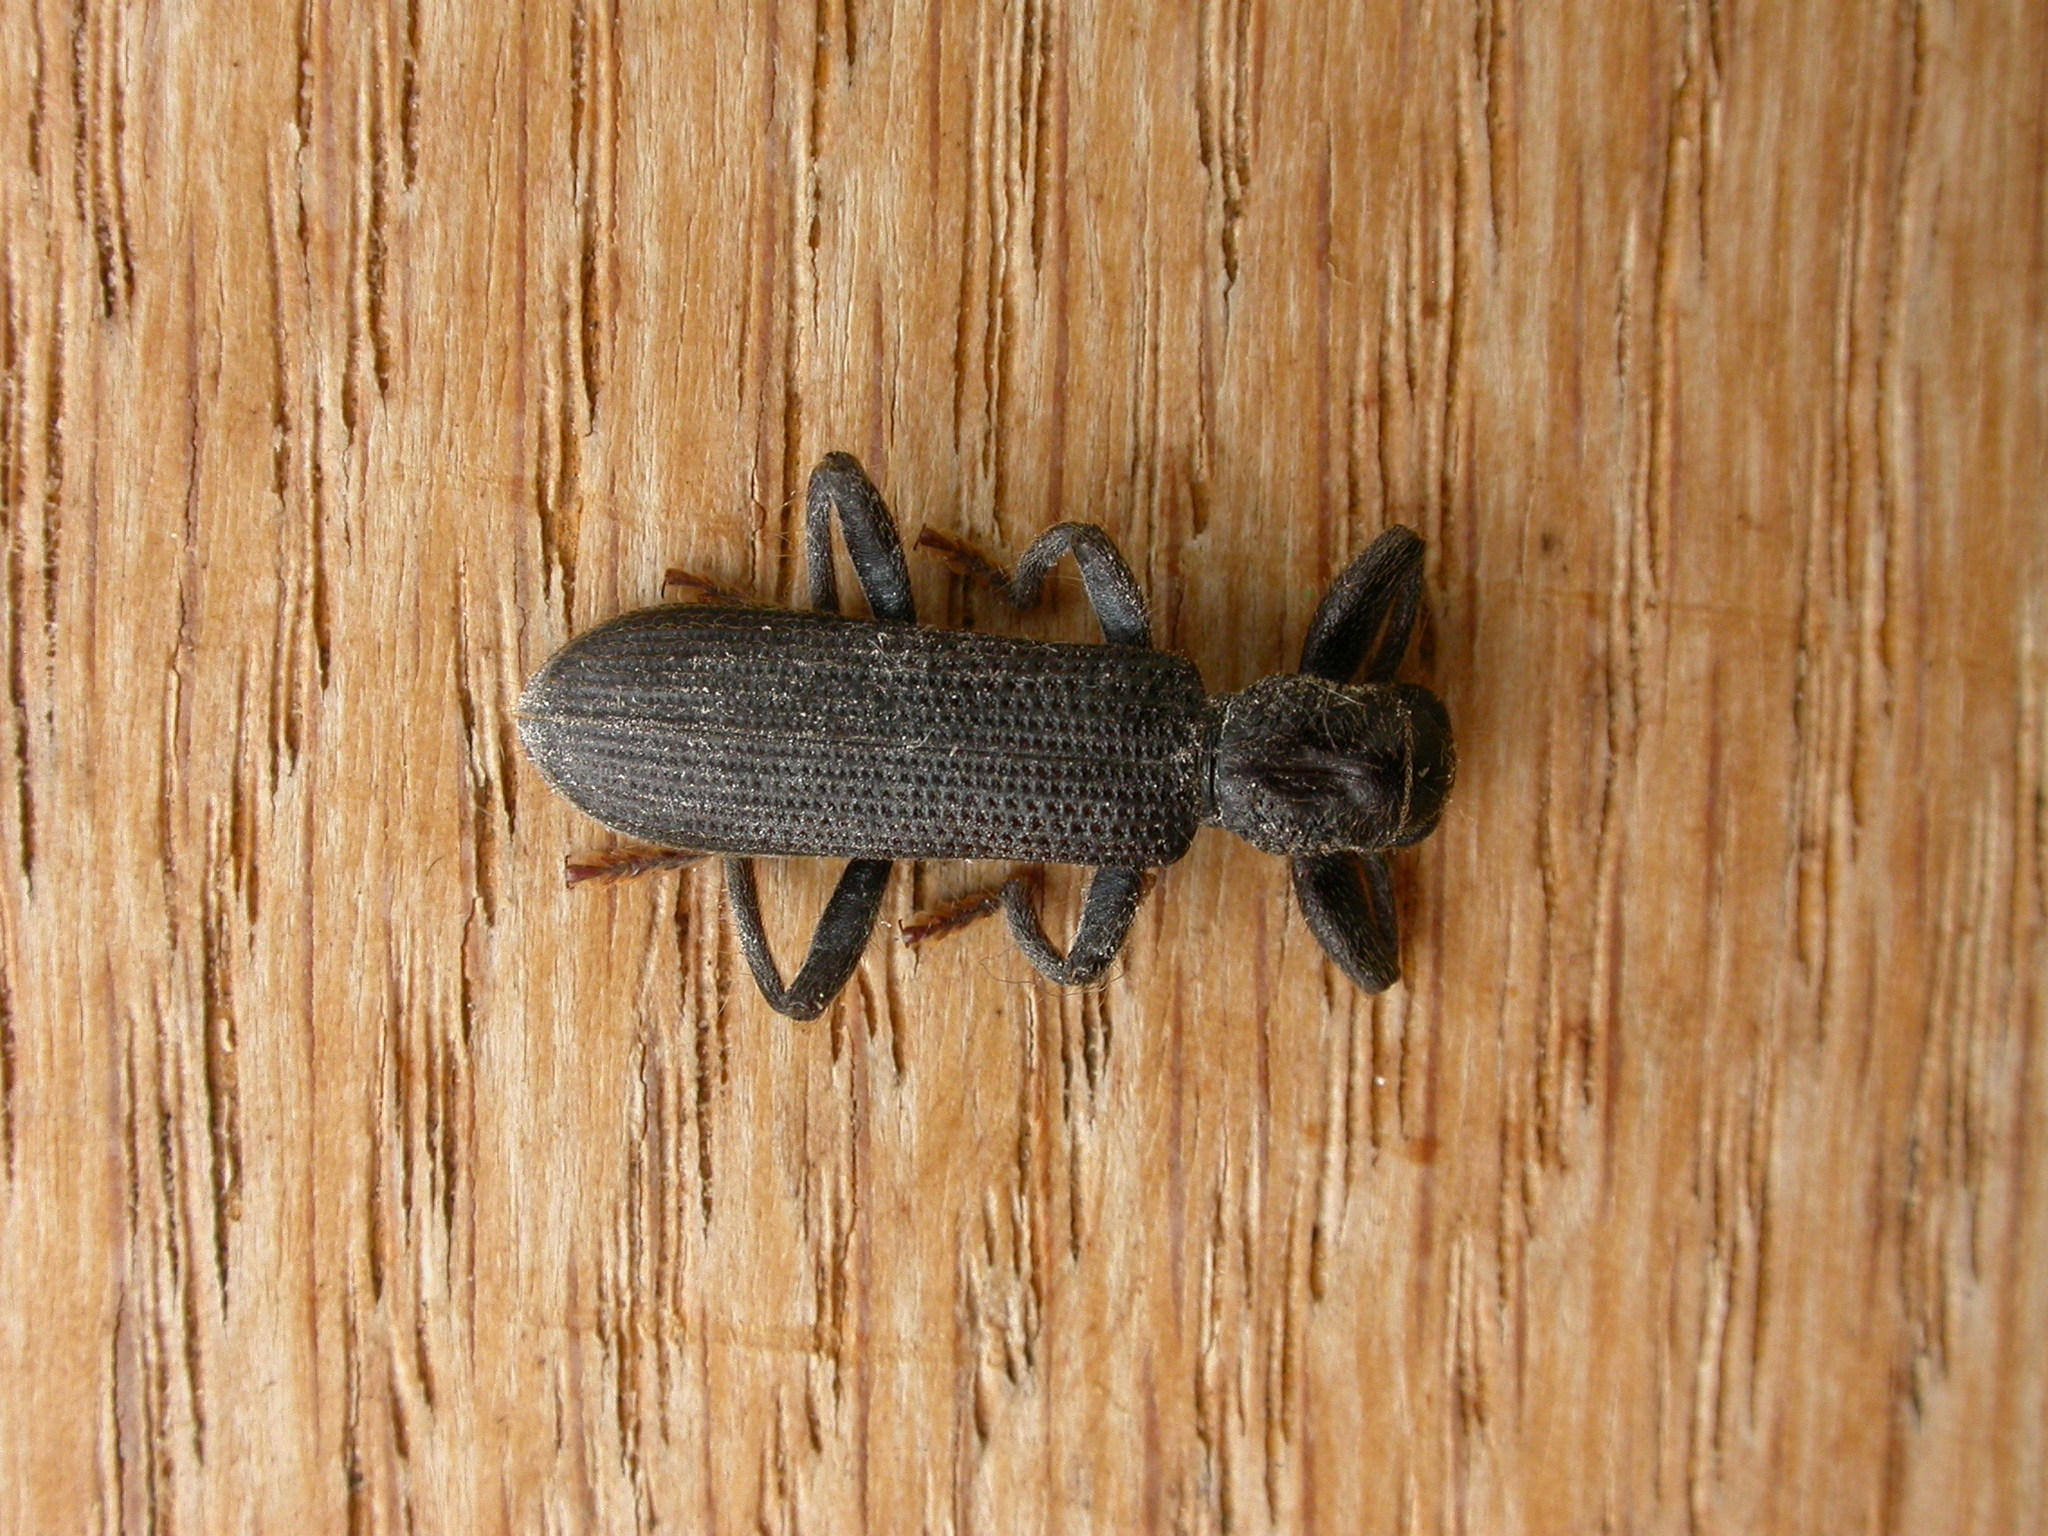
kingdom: Animalia
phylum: Arthropoda
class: Insecta
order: Coleoptera
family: Cleridae
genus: Eunatalis
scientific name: Eunatalis porcata
